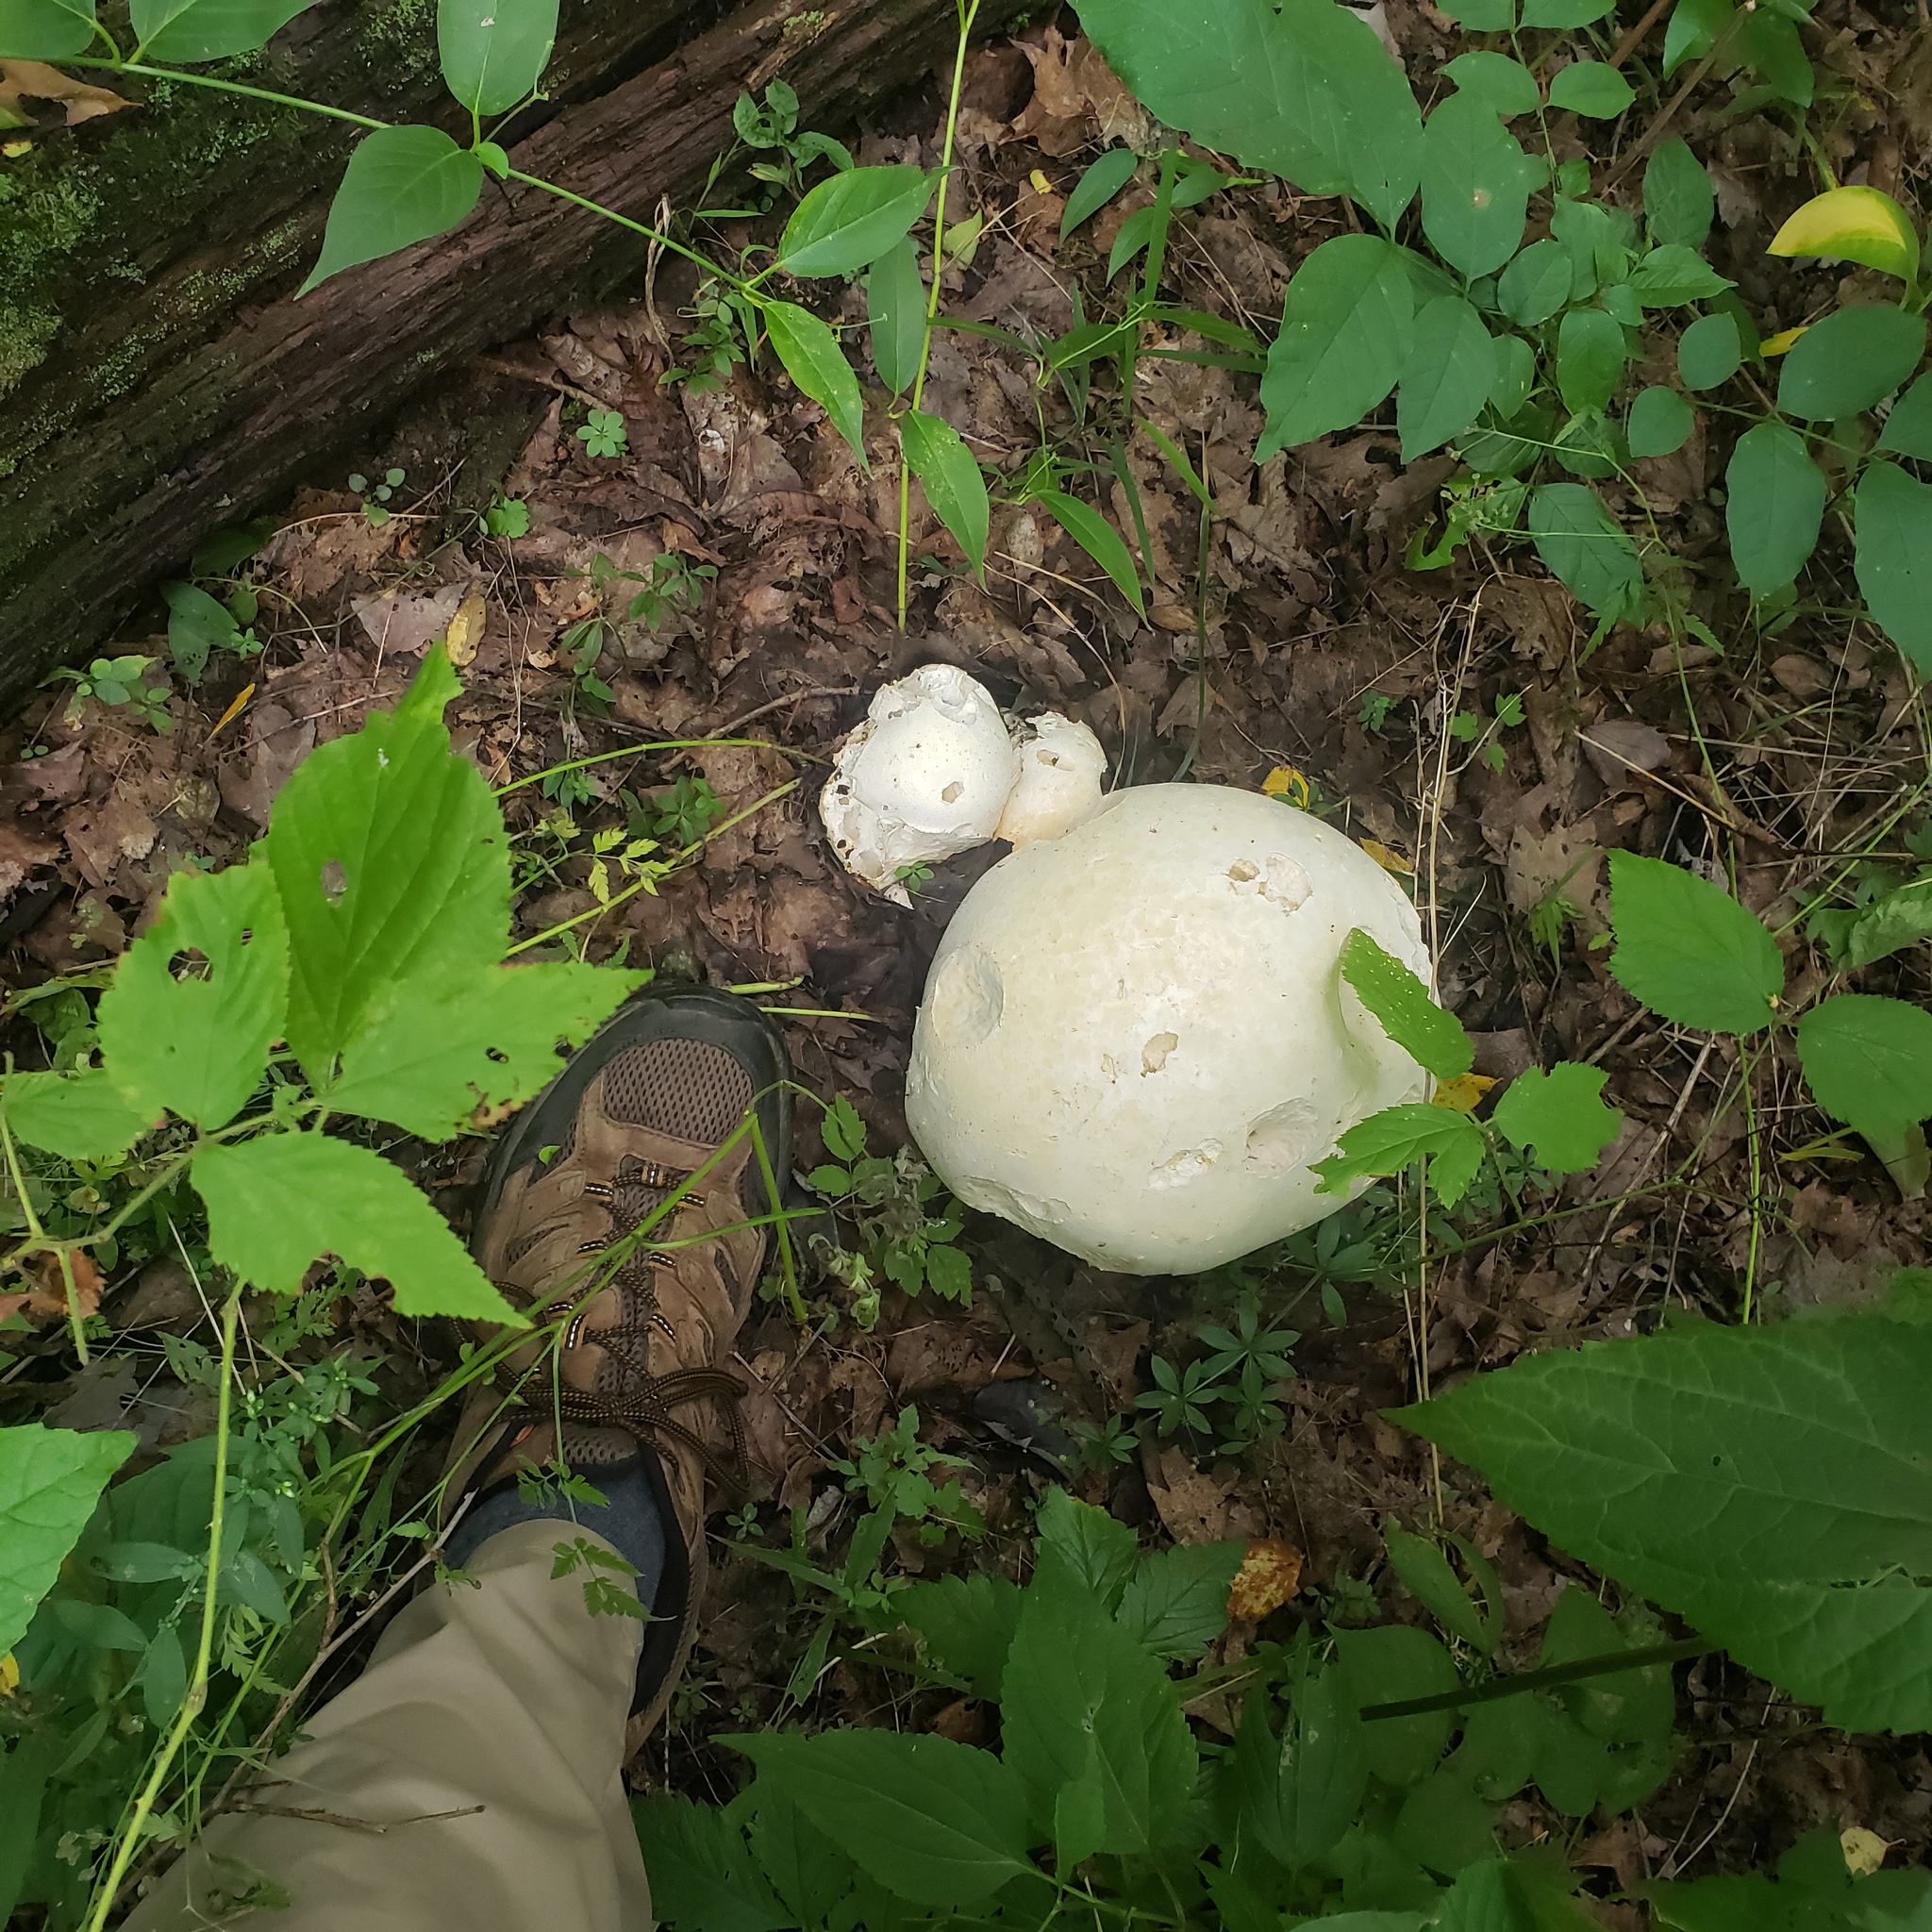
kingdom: Fungi
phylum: Basidiomycota
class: Agaricomycetes
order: Agaricales
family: Lycoperdaceae
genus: Calvatia
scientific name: Calvatia gigantea
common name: Giant puffball
